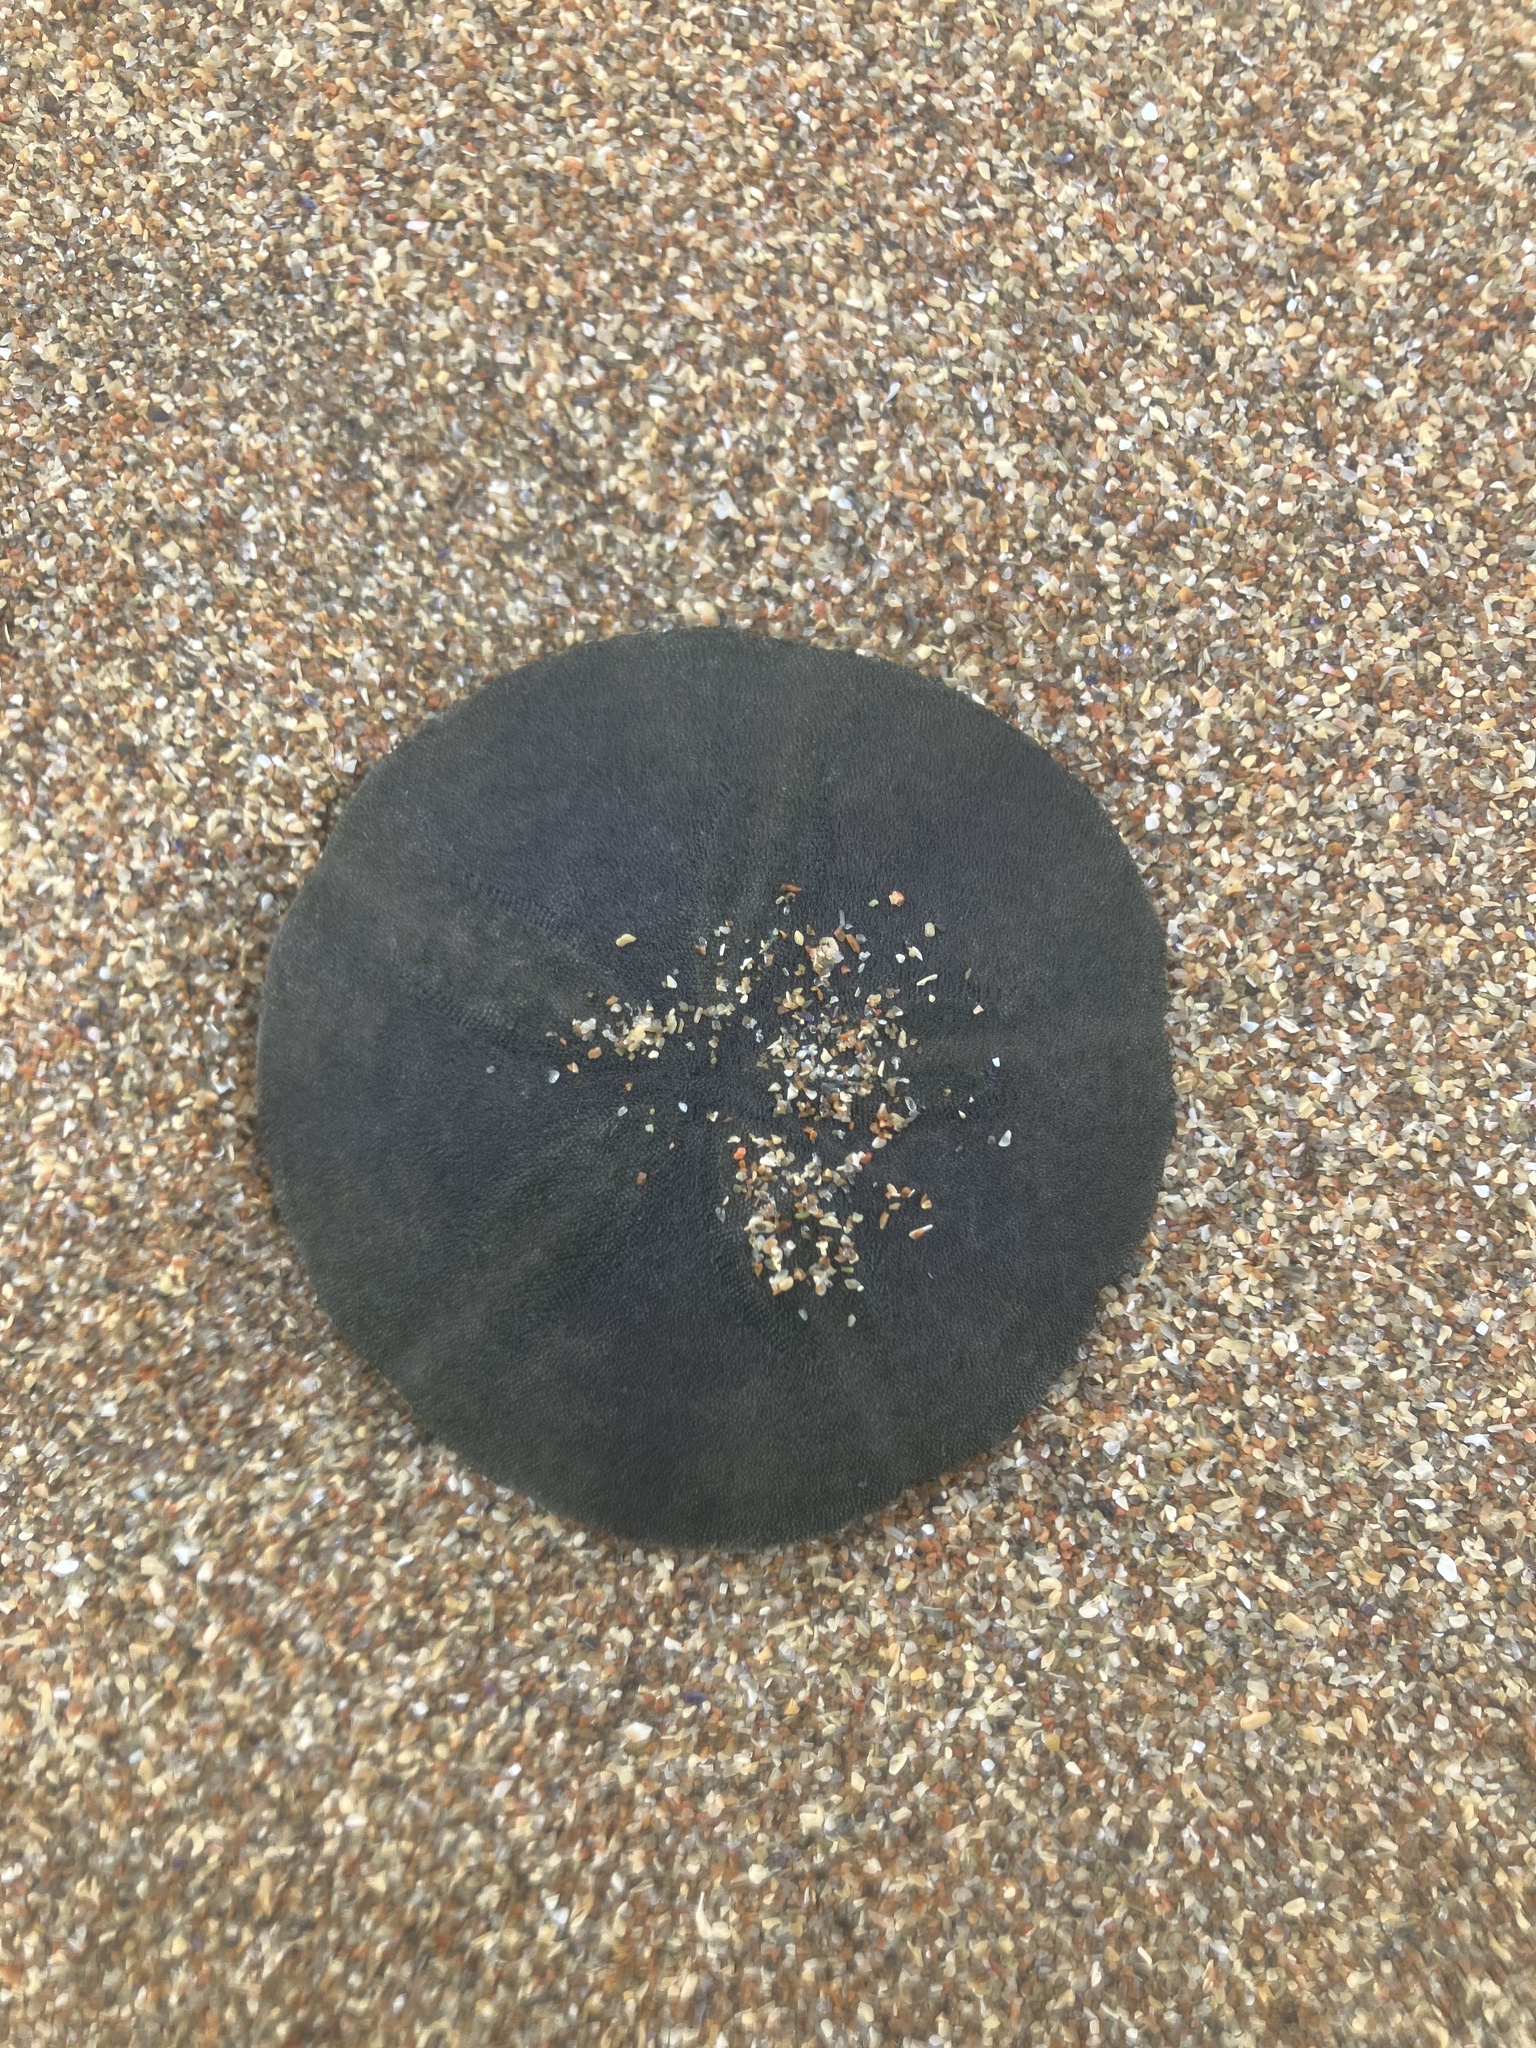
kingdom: Animalia
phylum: Echinodermata
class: Echinoidea
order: Echinolampadacea
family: Echinarachniidae
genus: Echinarachnius
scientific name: Echinarachnius parma
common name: Common sand dollar
